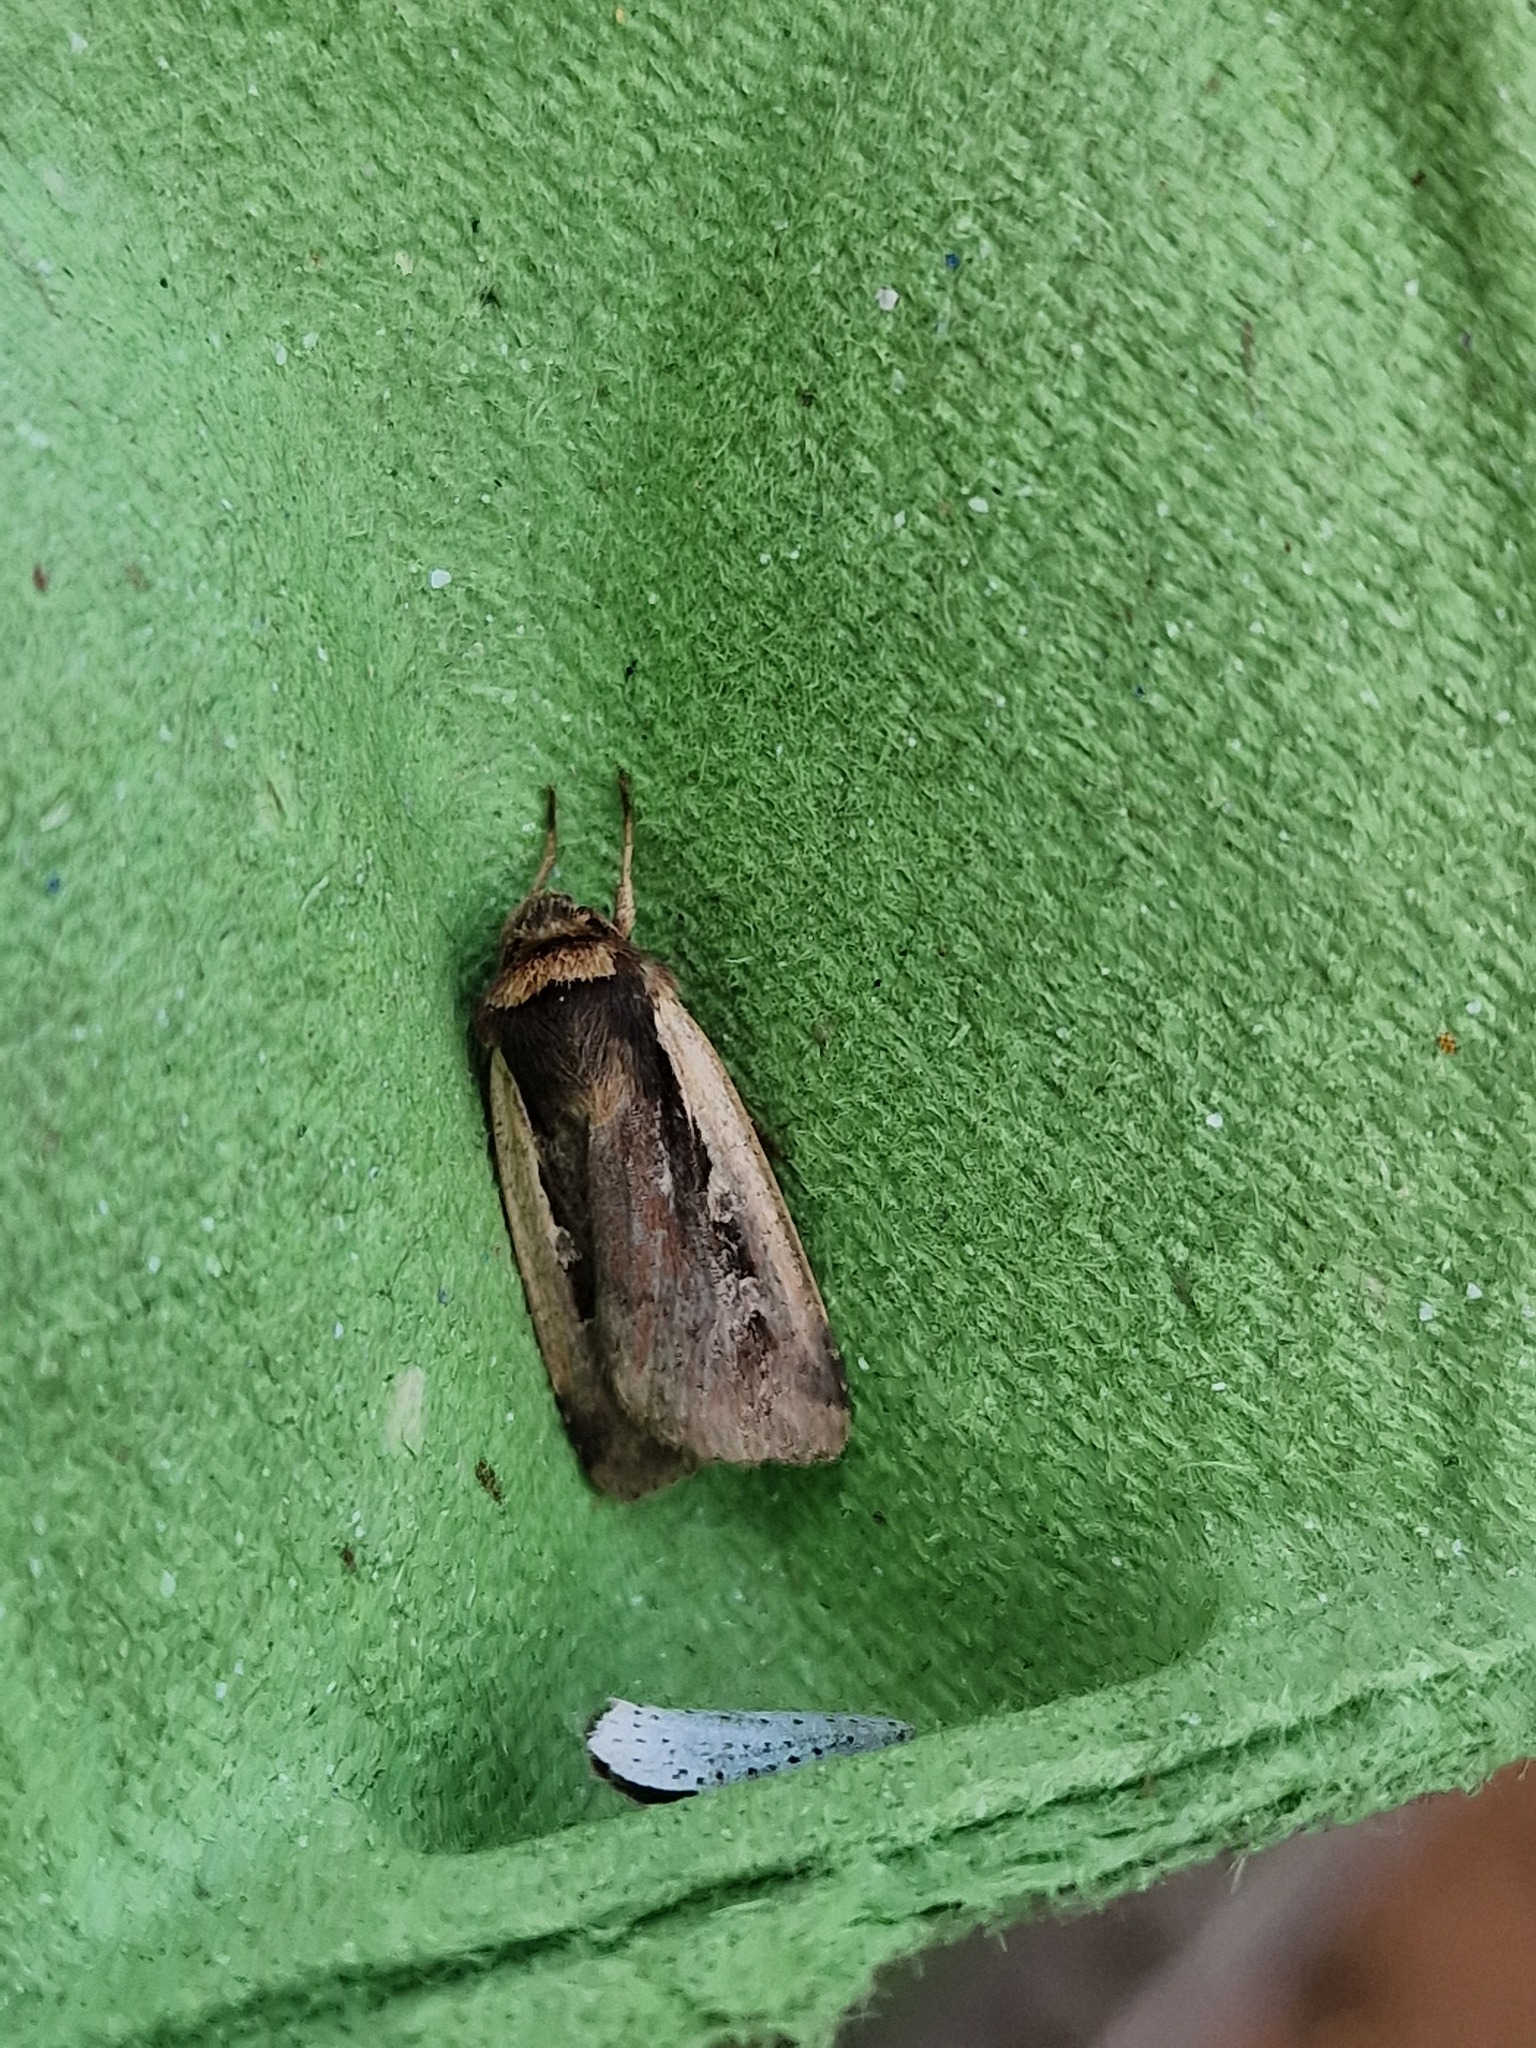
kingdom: Animalia
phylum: Arthropoda
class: Insecta
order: Lepidoptera
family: Noctuidae
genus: Ochropleura
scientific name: Ochropleura plecta
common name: Flame shoulder
